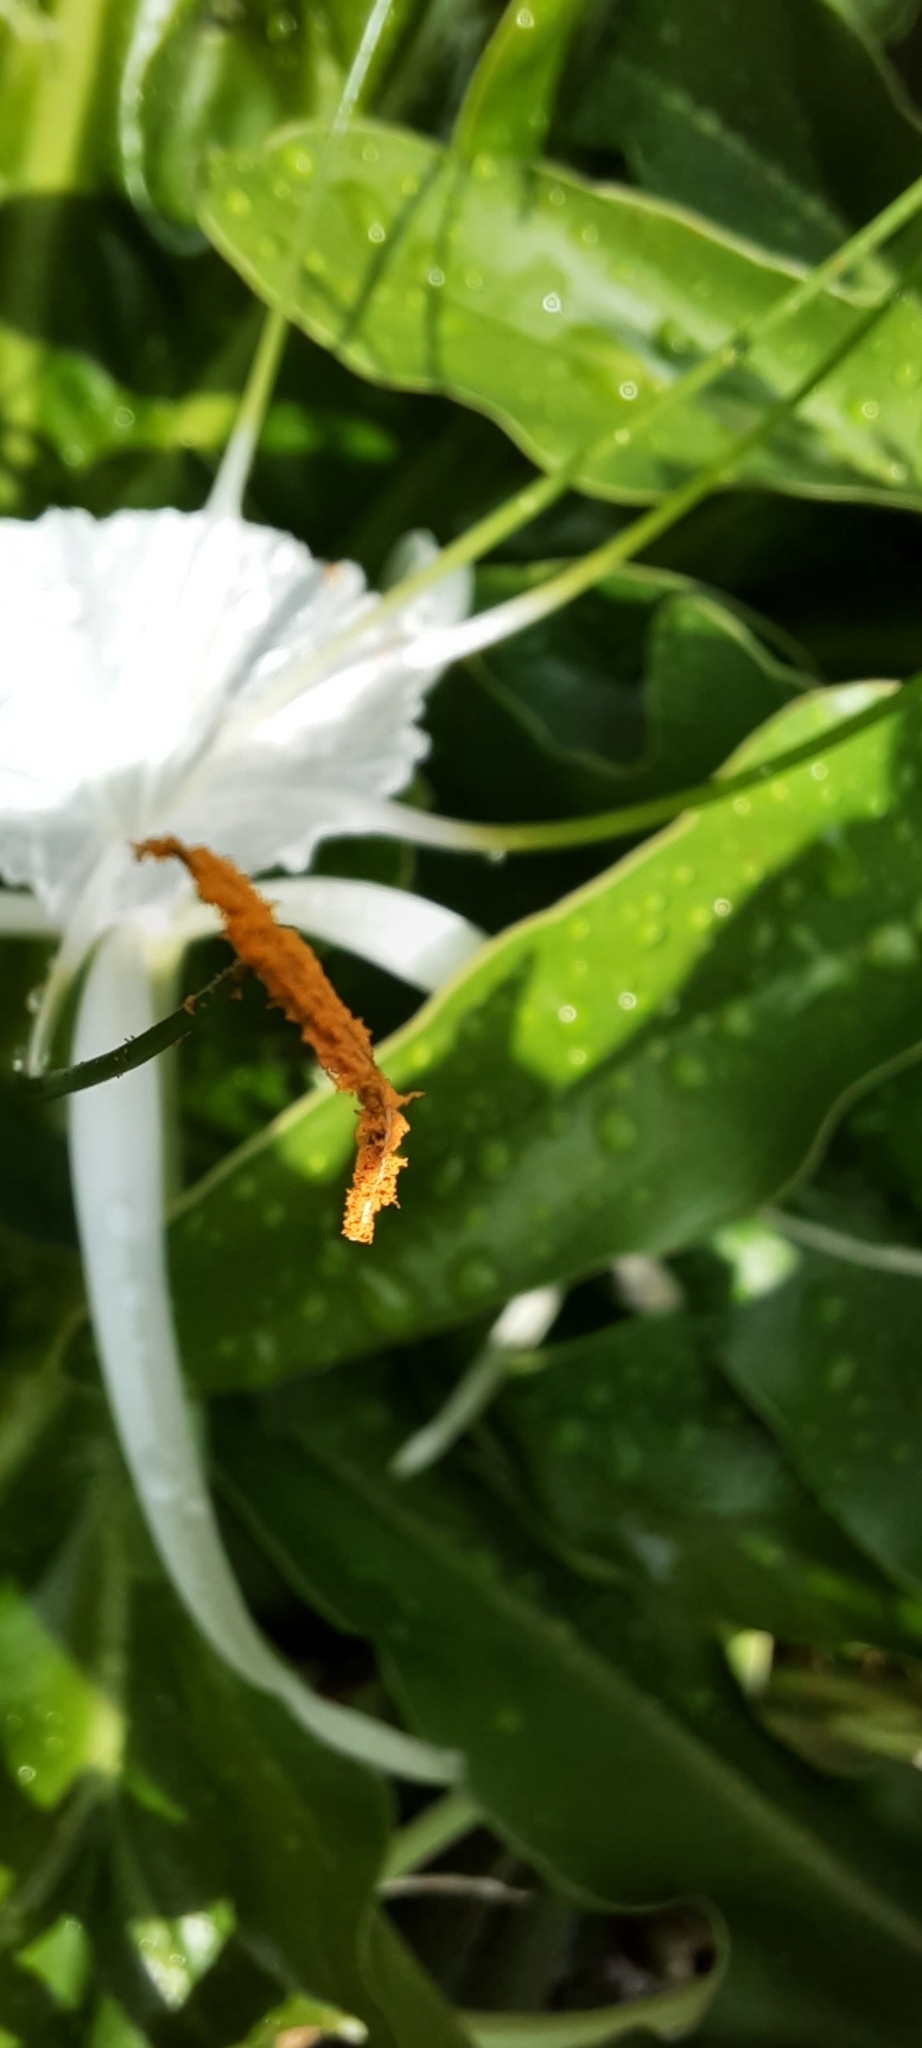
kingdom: Plantae
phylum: Tracheophyta
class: Liliopsida
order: Asparagales
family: Amaryllidaceae
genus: Hymenocallis
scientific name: Hymenocallis littoralis
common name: Beach spiderlily
